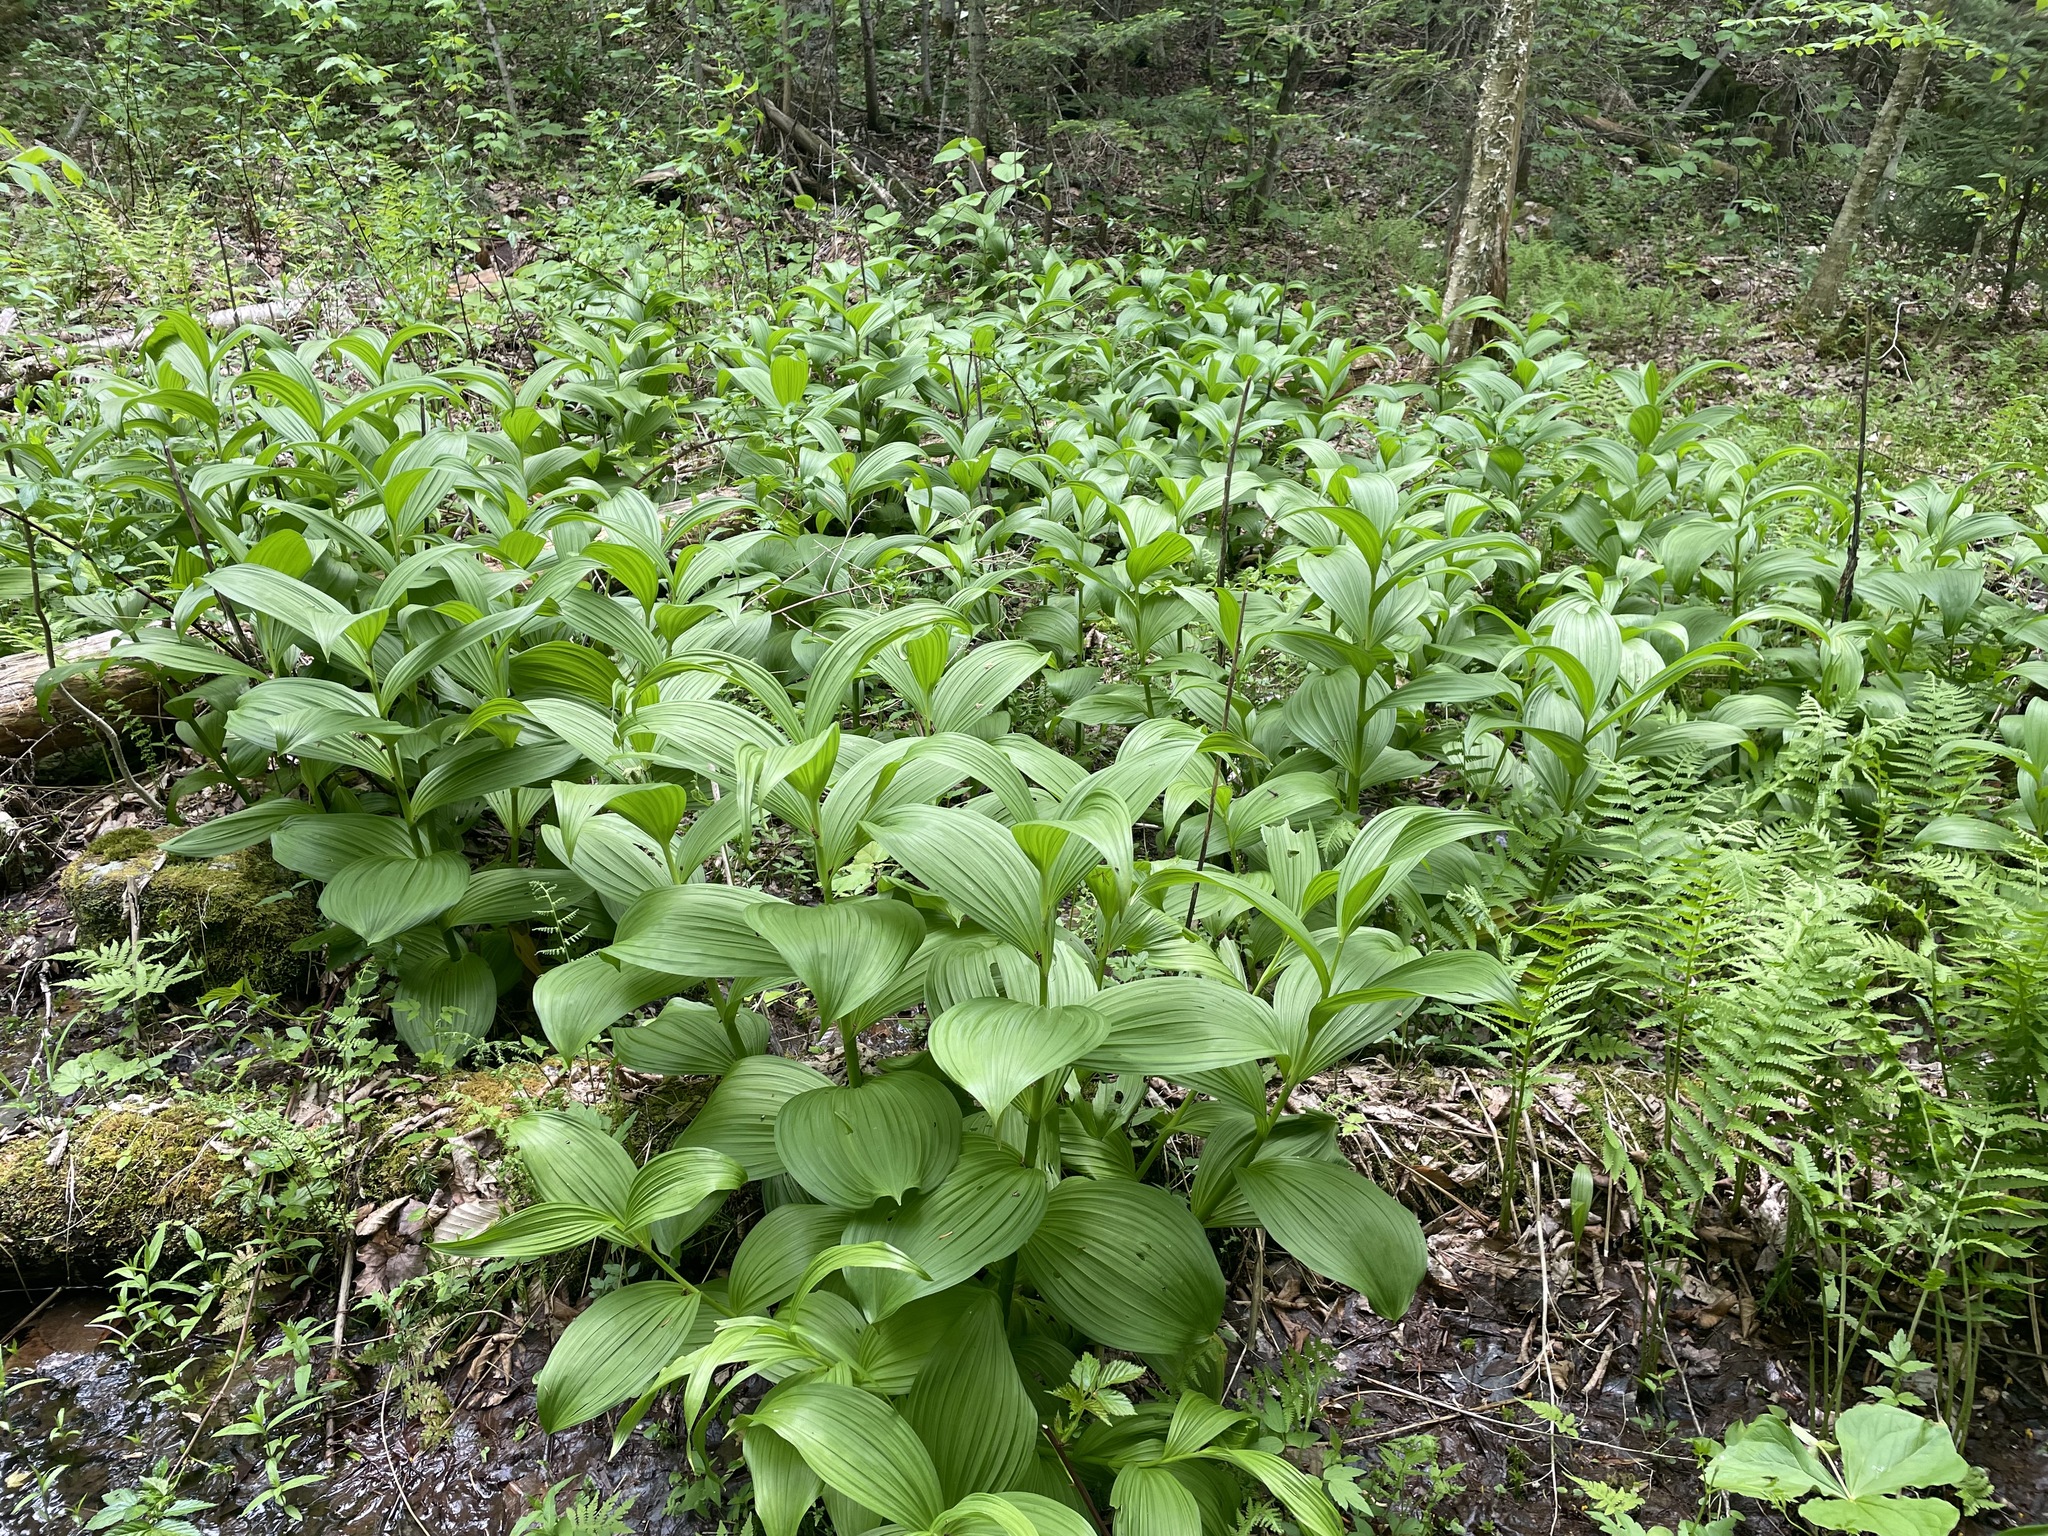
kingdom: Plantae
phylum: Tracheophyta
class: Liliopsida
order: Liliales
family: Melanthiaceae
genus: Veratrum
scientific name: Veratrum viride
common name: American false hellebore
